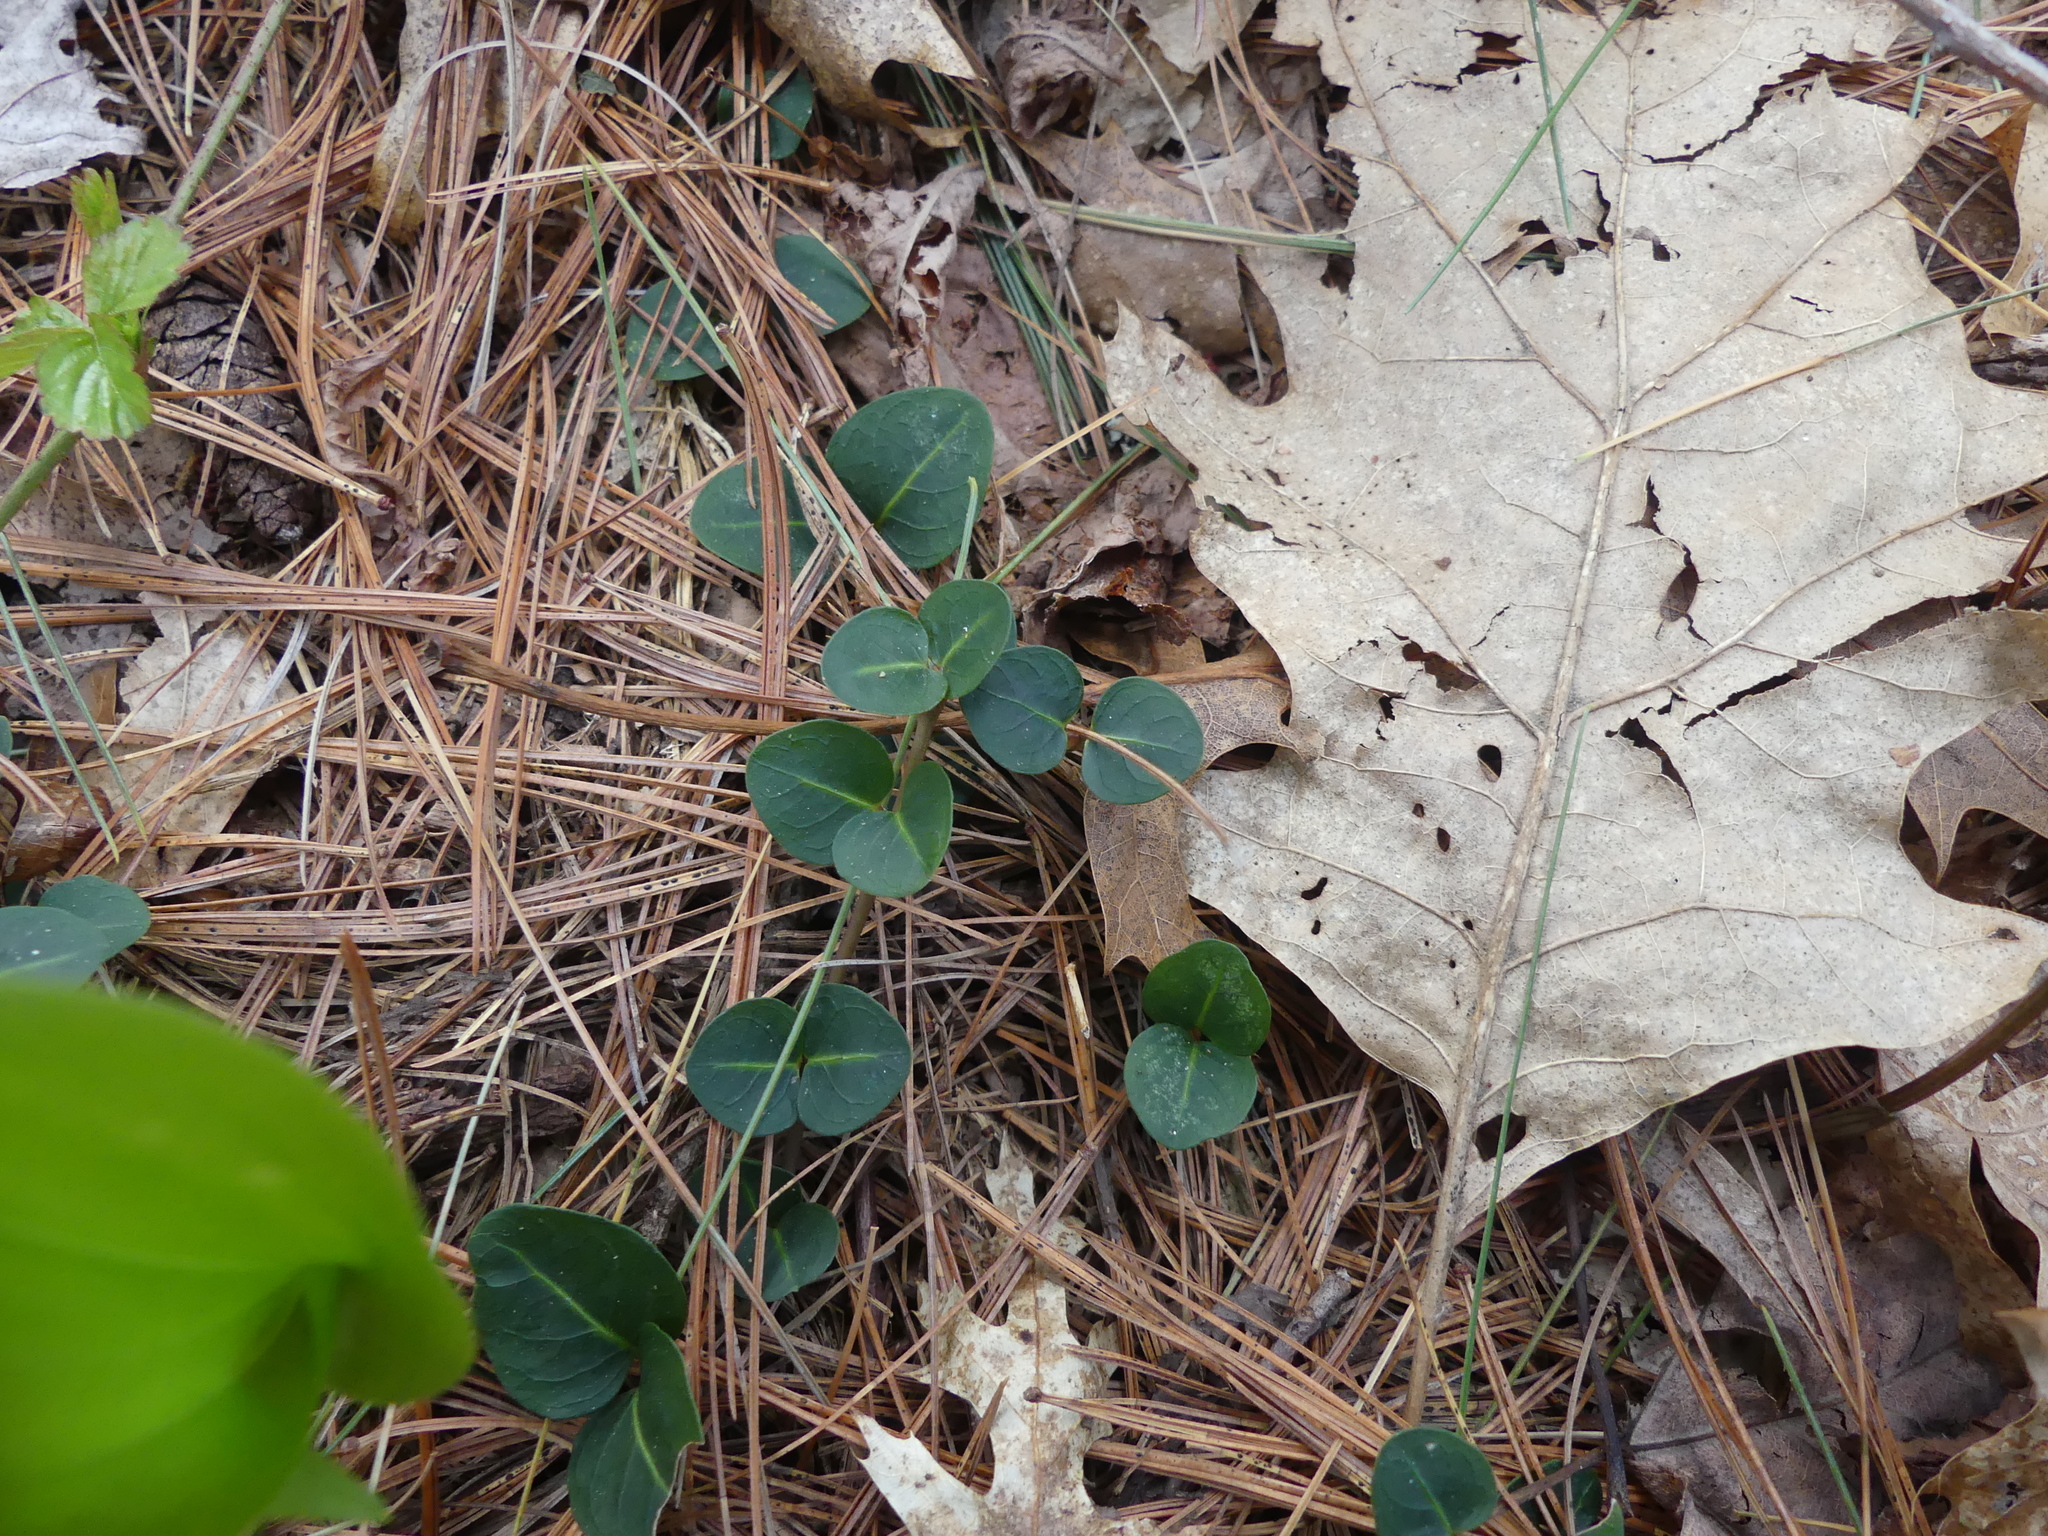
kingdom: Plantae
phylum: Tracheophyta
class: Magnoliopsida
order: Gentianales
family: Rubiaceae
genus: Mitchella
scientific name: Mitchella repens
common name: Partridge-berry
